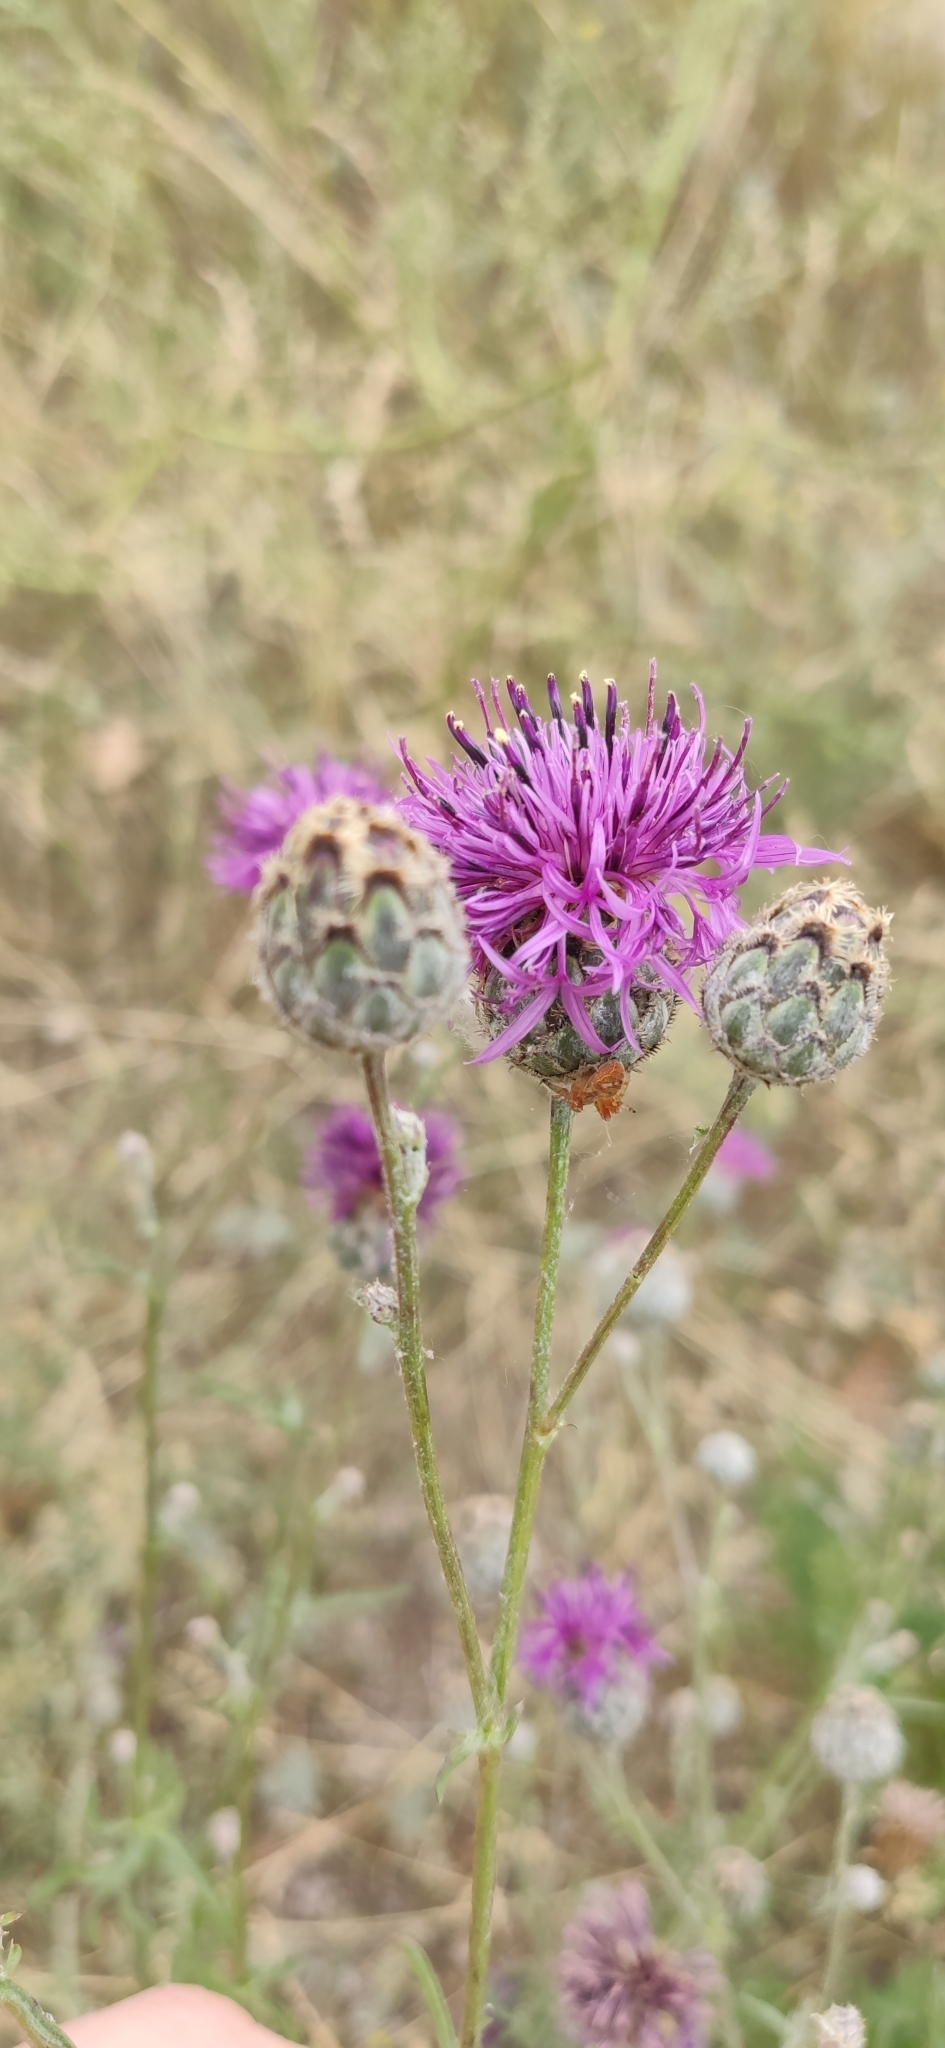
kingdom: Plantae
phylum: Tracheophyta
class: Magnoliopsida
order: Asterales
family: Asteraceae
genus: Centaurea
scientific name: Centaurea scabiosa
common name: Greater knapweed
